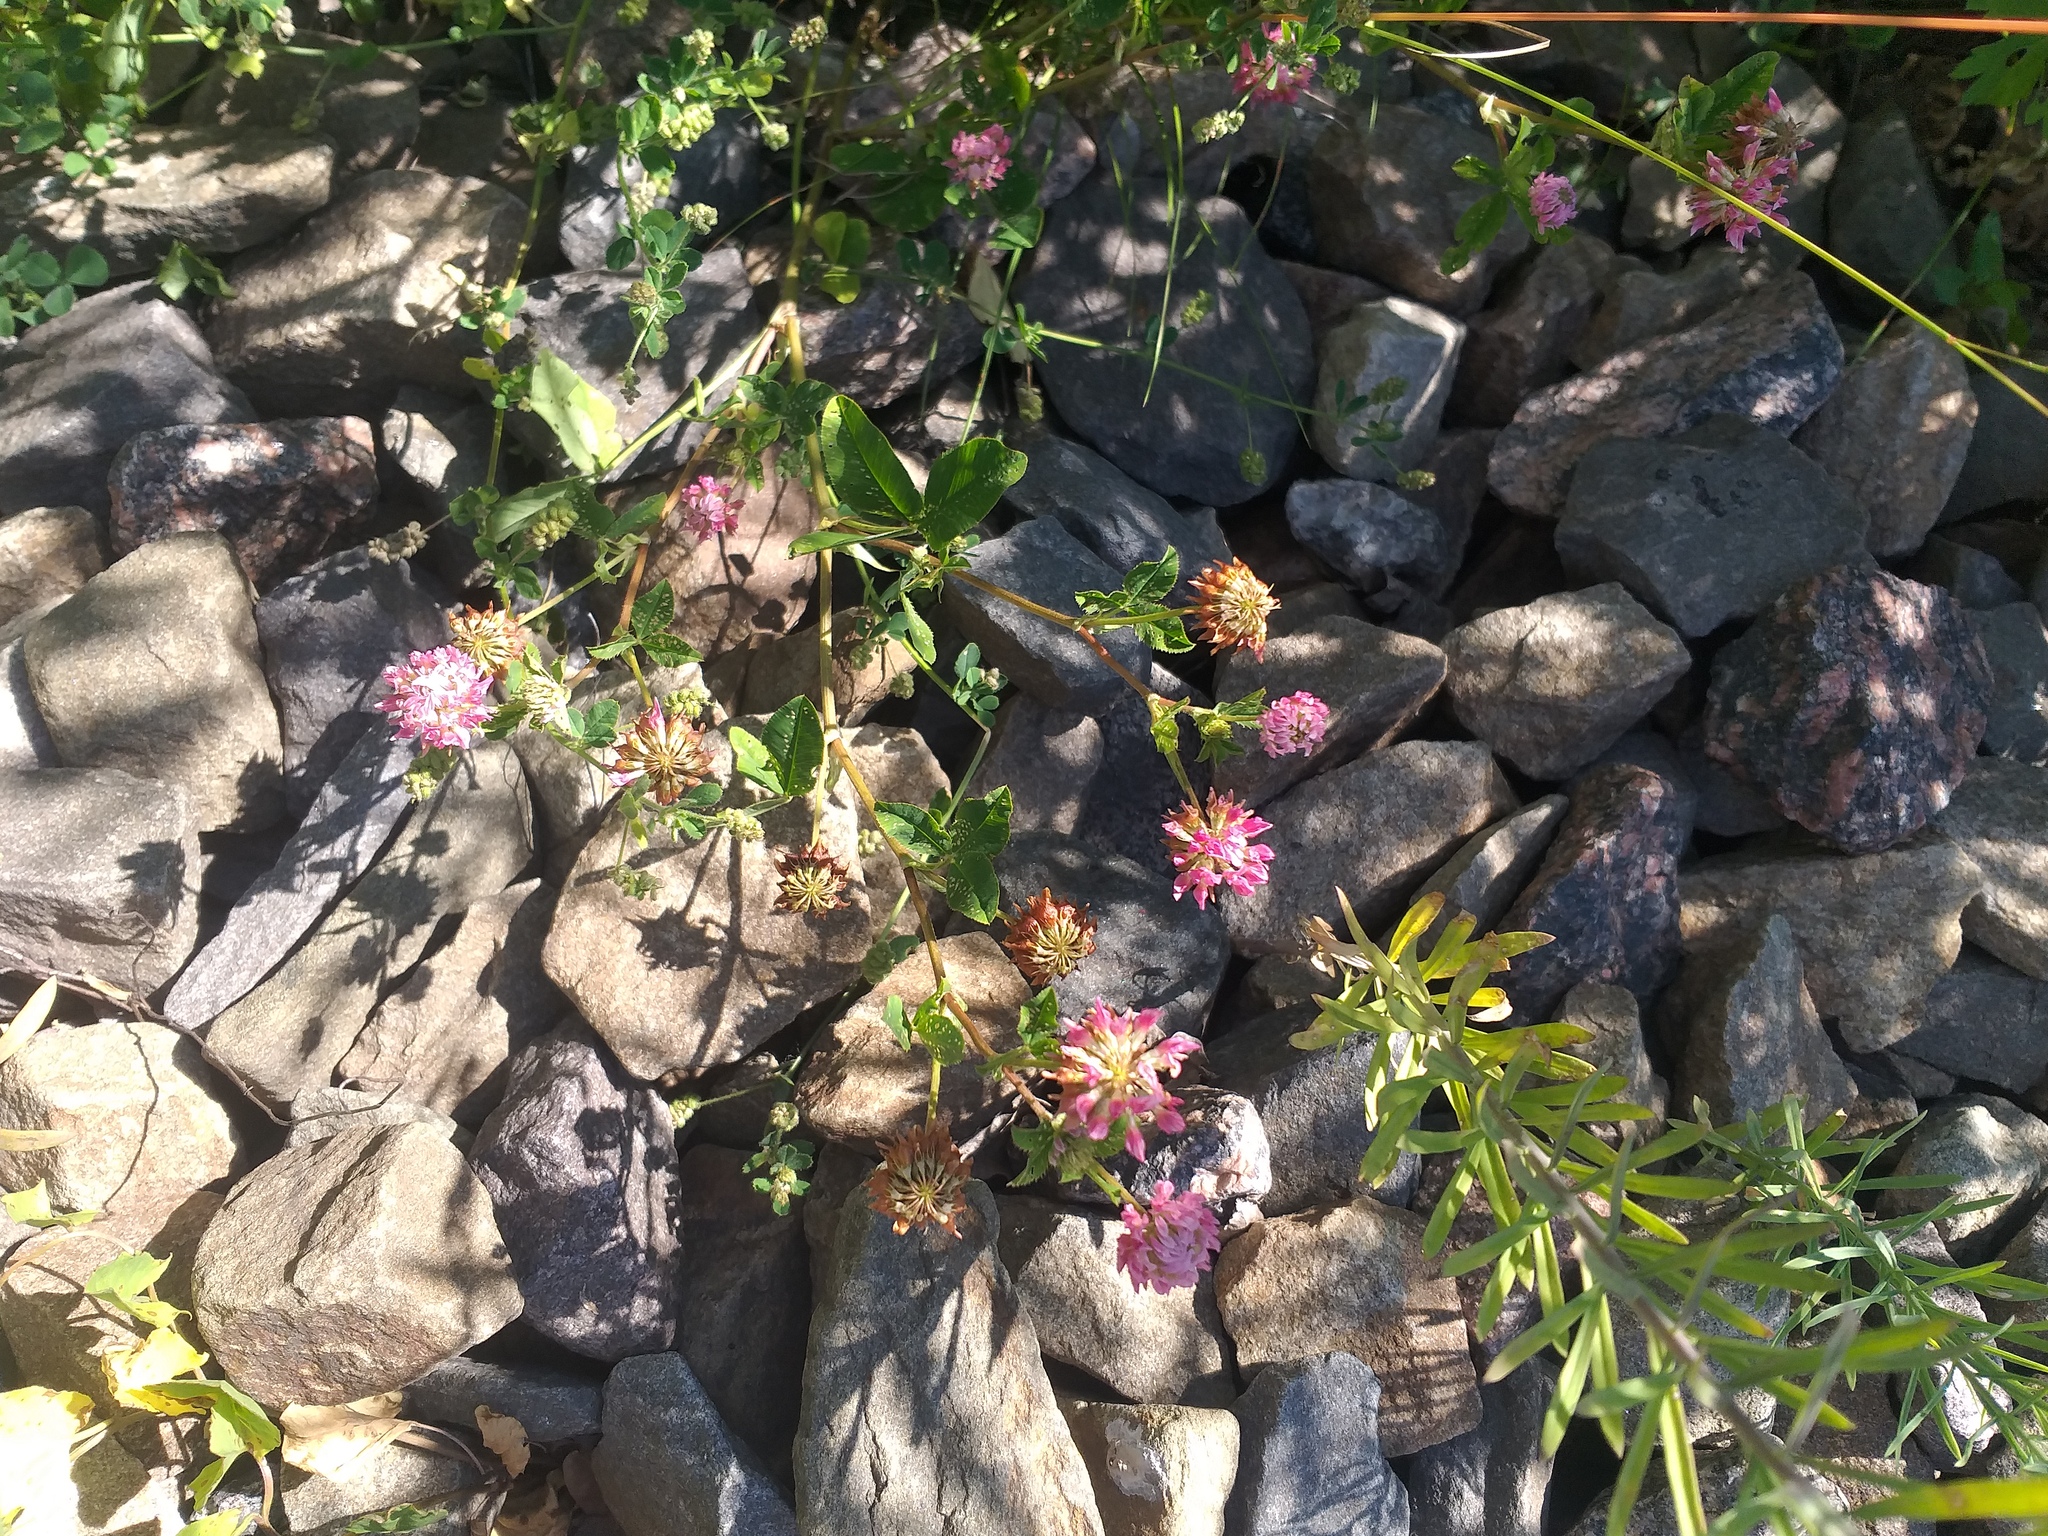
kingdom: Plantae
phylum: Tracheophyta
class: Magnoliopsida
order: Fabales
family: Fabaceae
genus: Trifolium
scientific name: Trifolium hybridum
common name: Alsike clover
